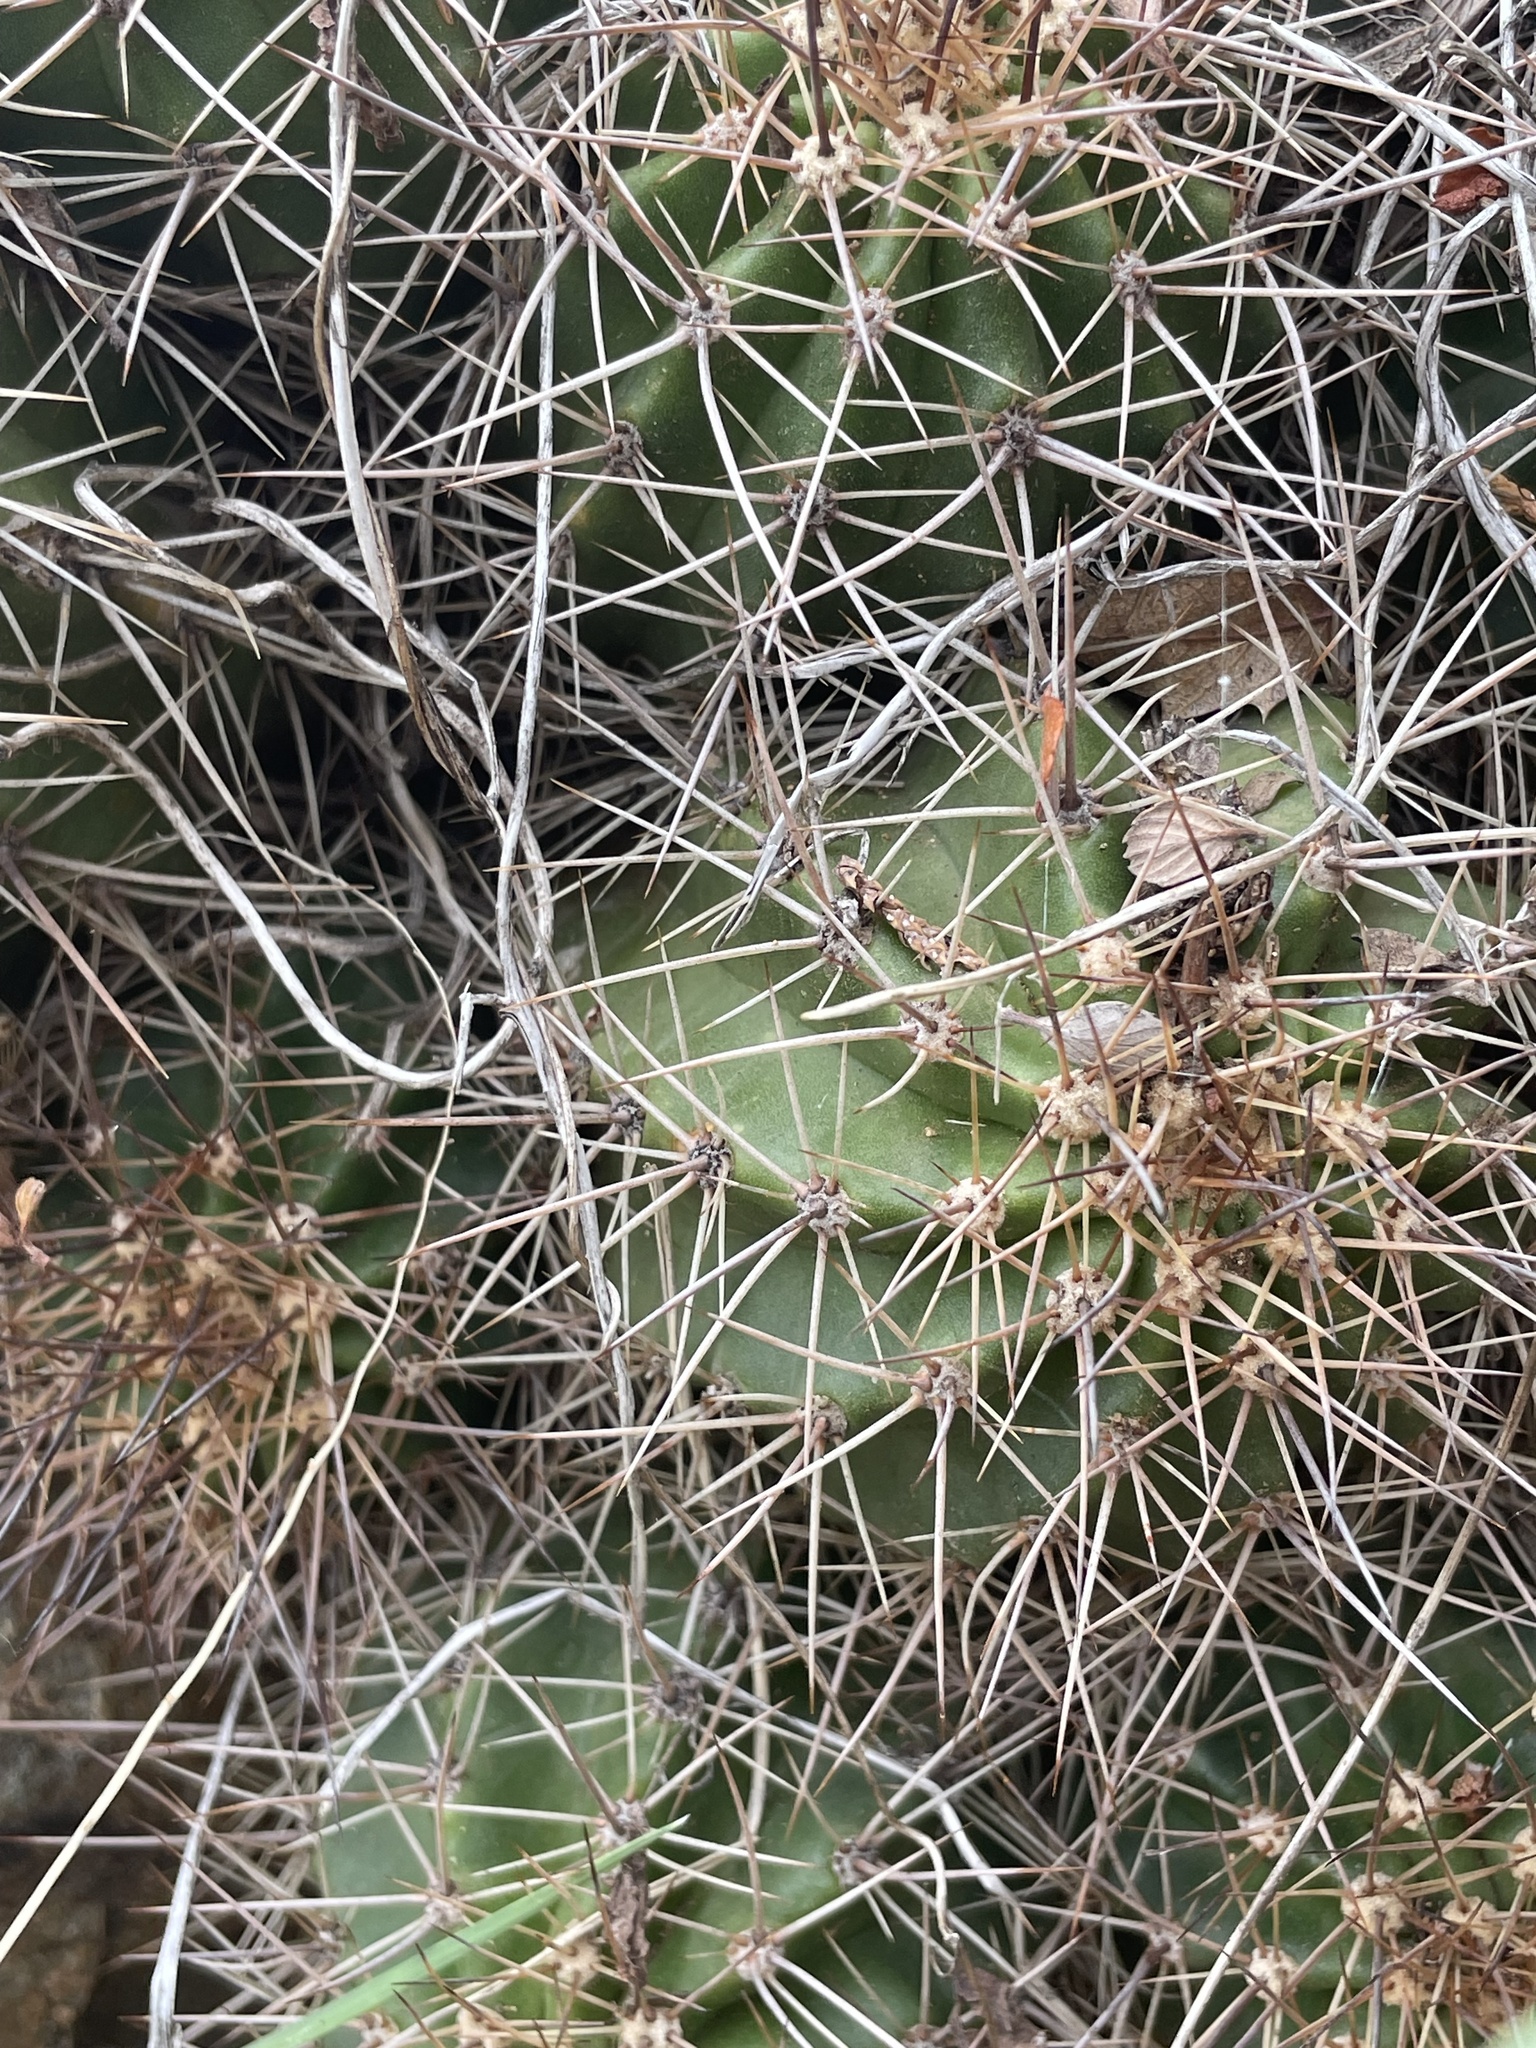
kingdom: Plantae
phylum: Tracheophyta
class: Magnoliopsida
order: Caryophyllales
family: Cactaceae
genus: Echinocereus
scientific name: Echinocereus bakeri
